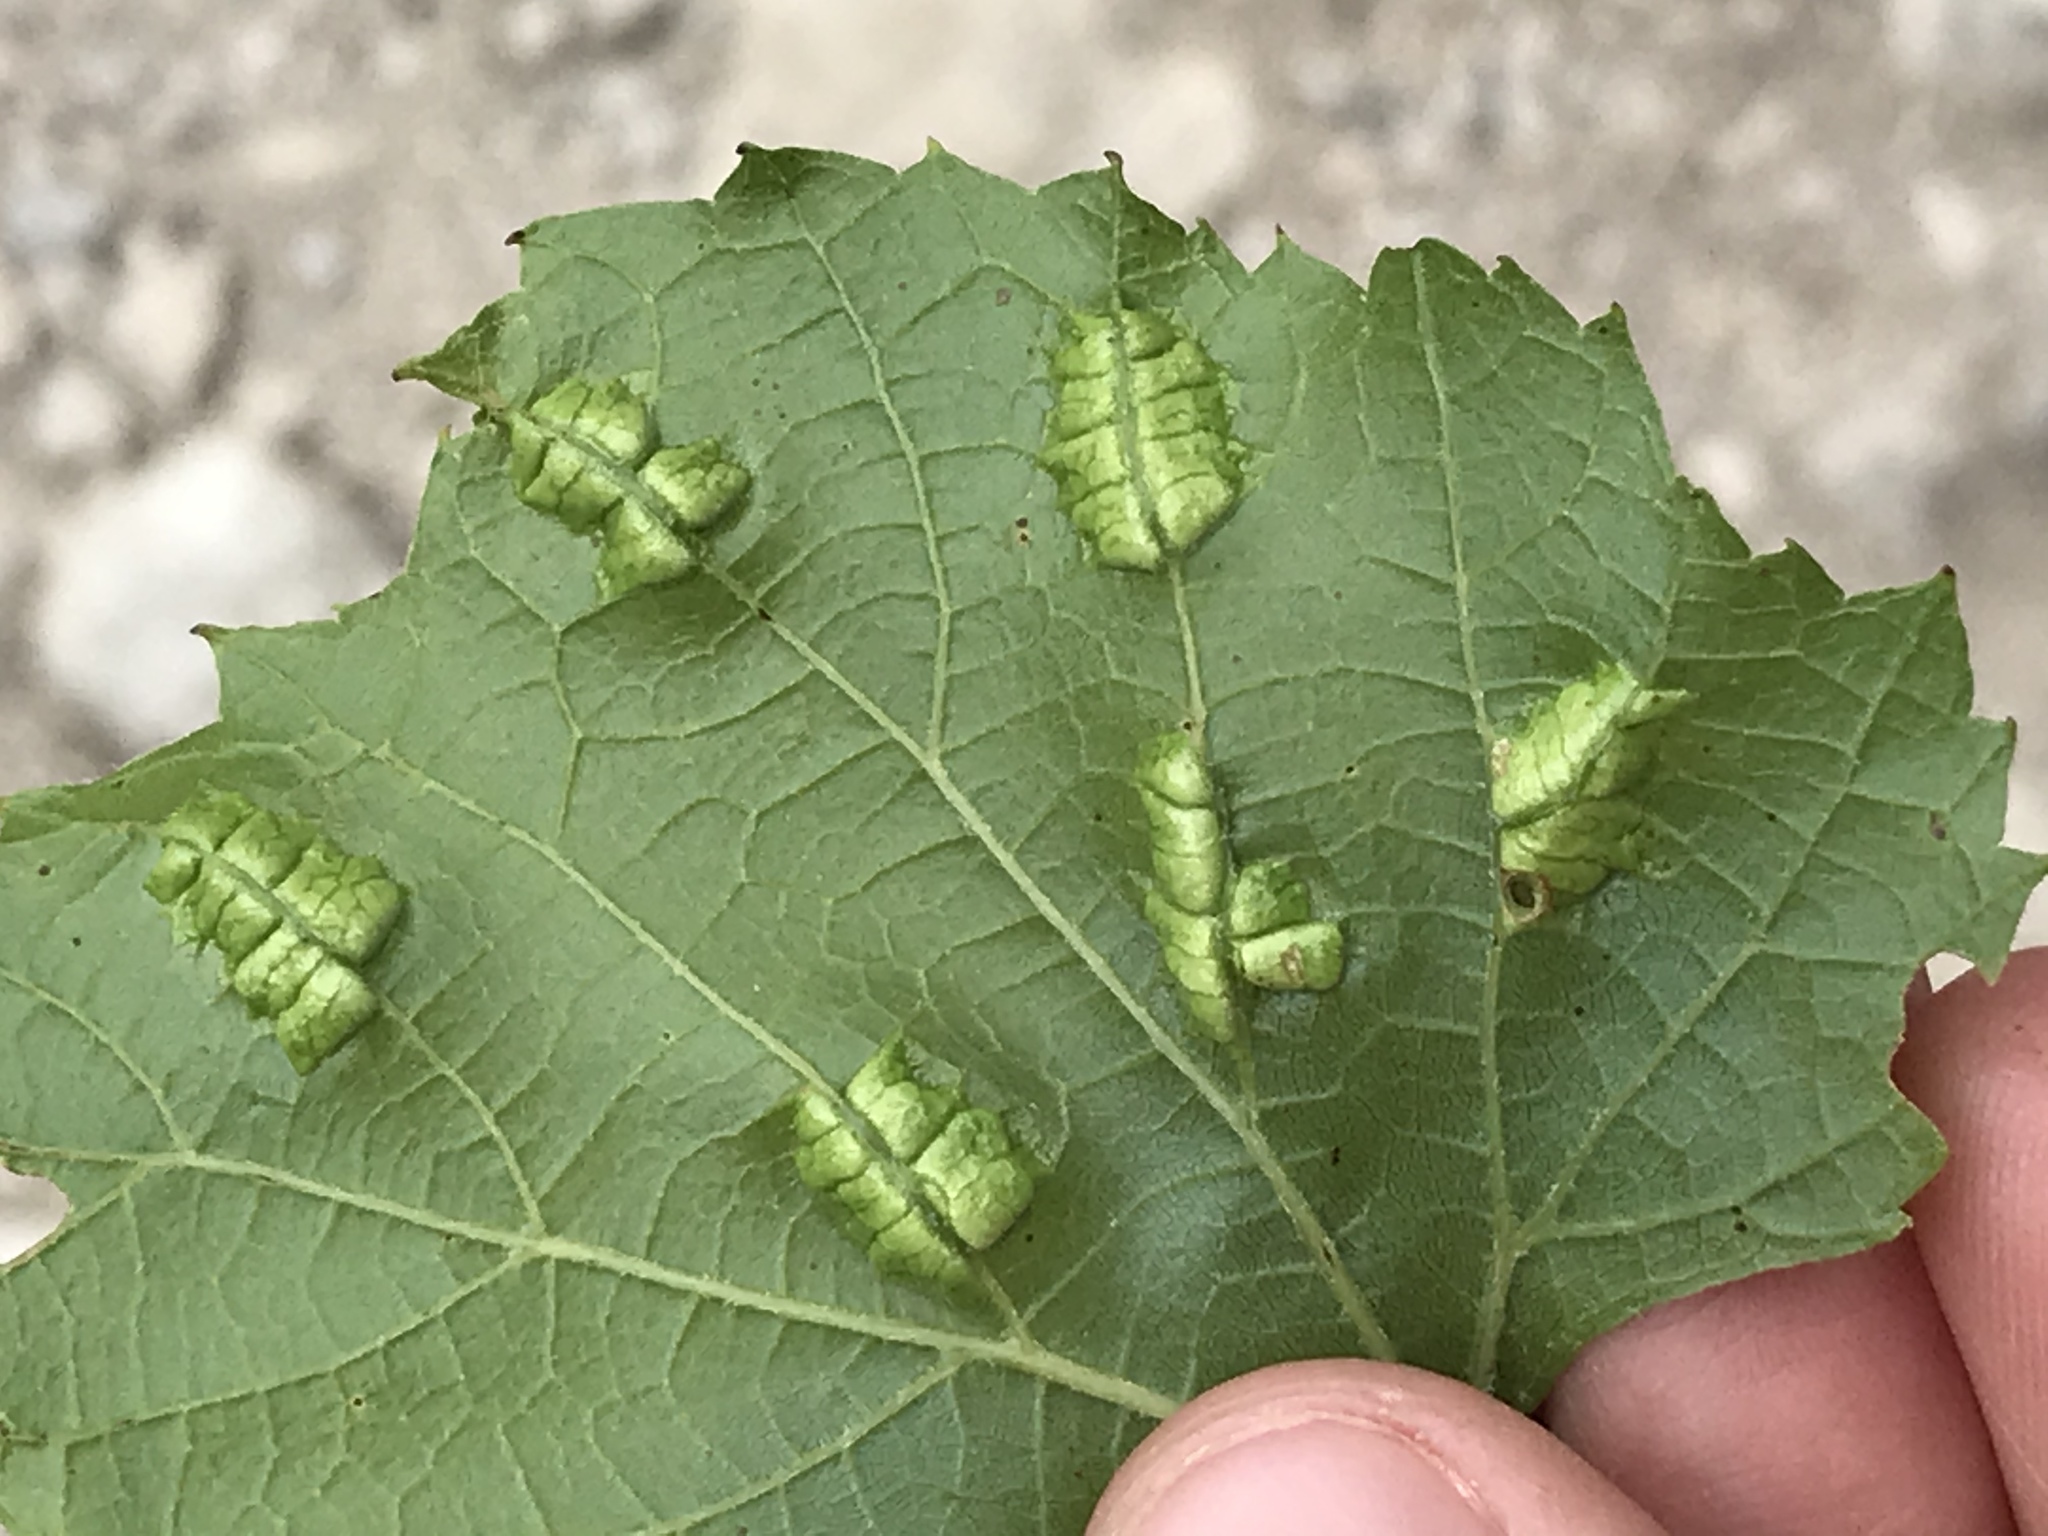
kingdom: Animalia
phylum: Arthropoda
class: Insecta
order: Lepidoptera
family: Heliozelidae
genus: Heliozela
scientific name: Heliozela aesella
